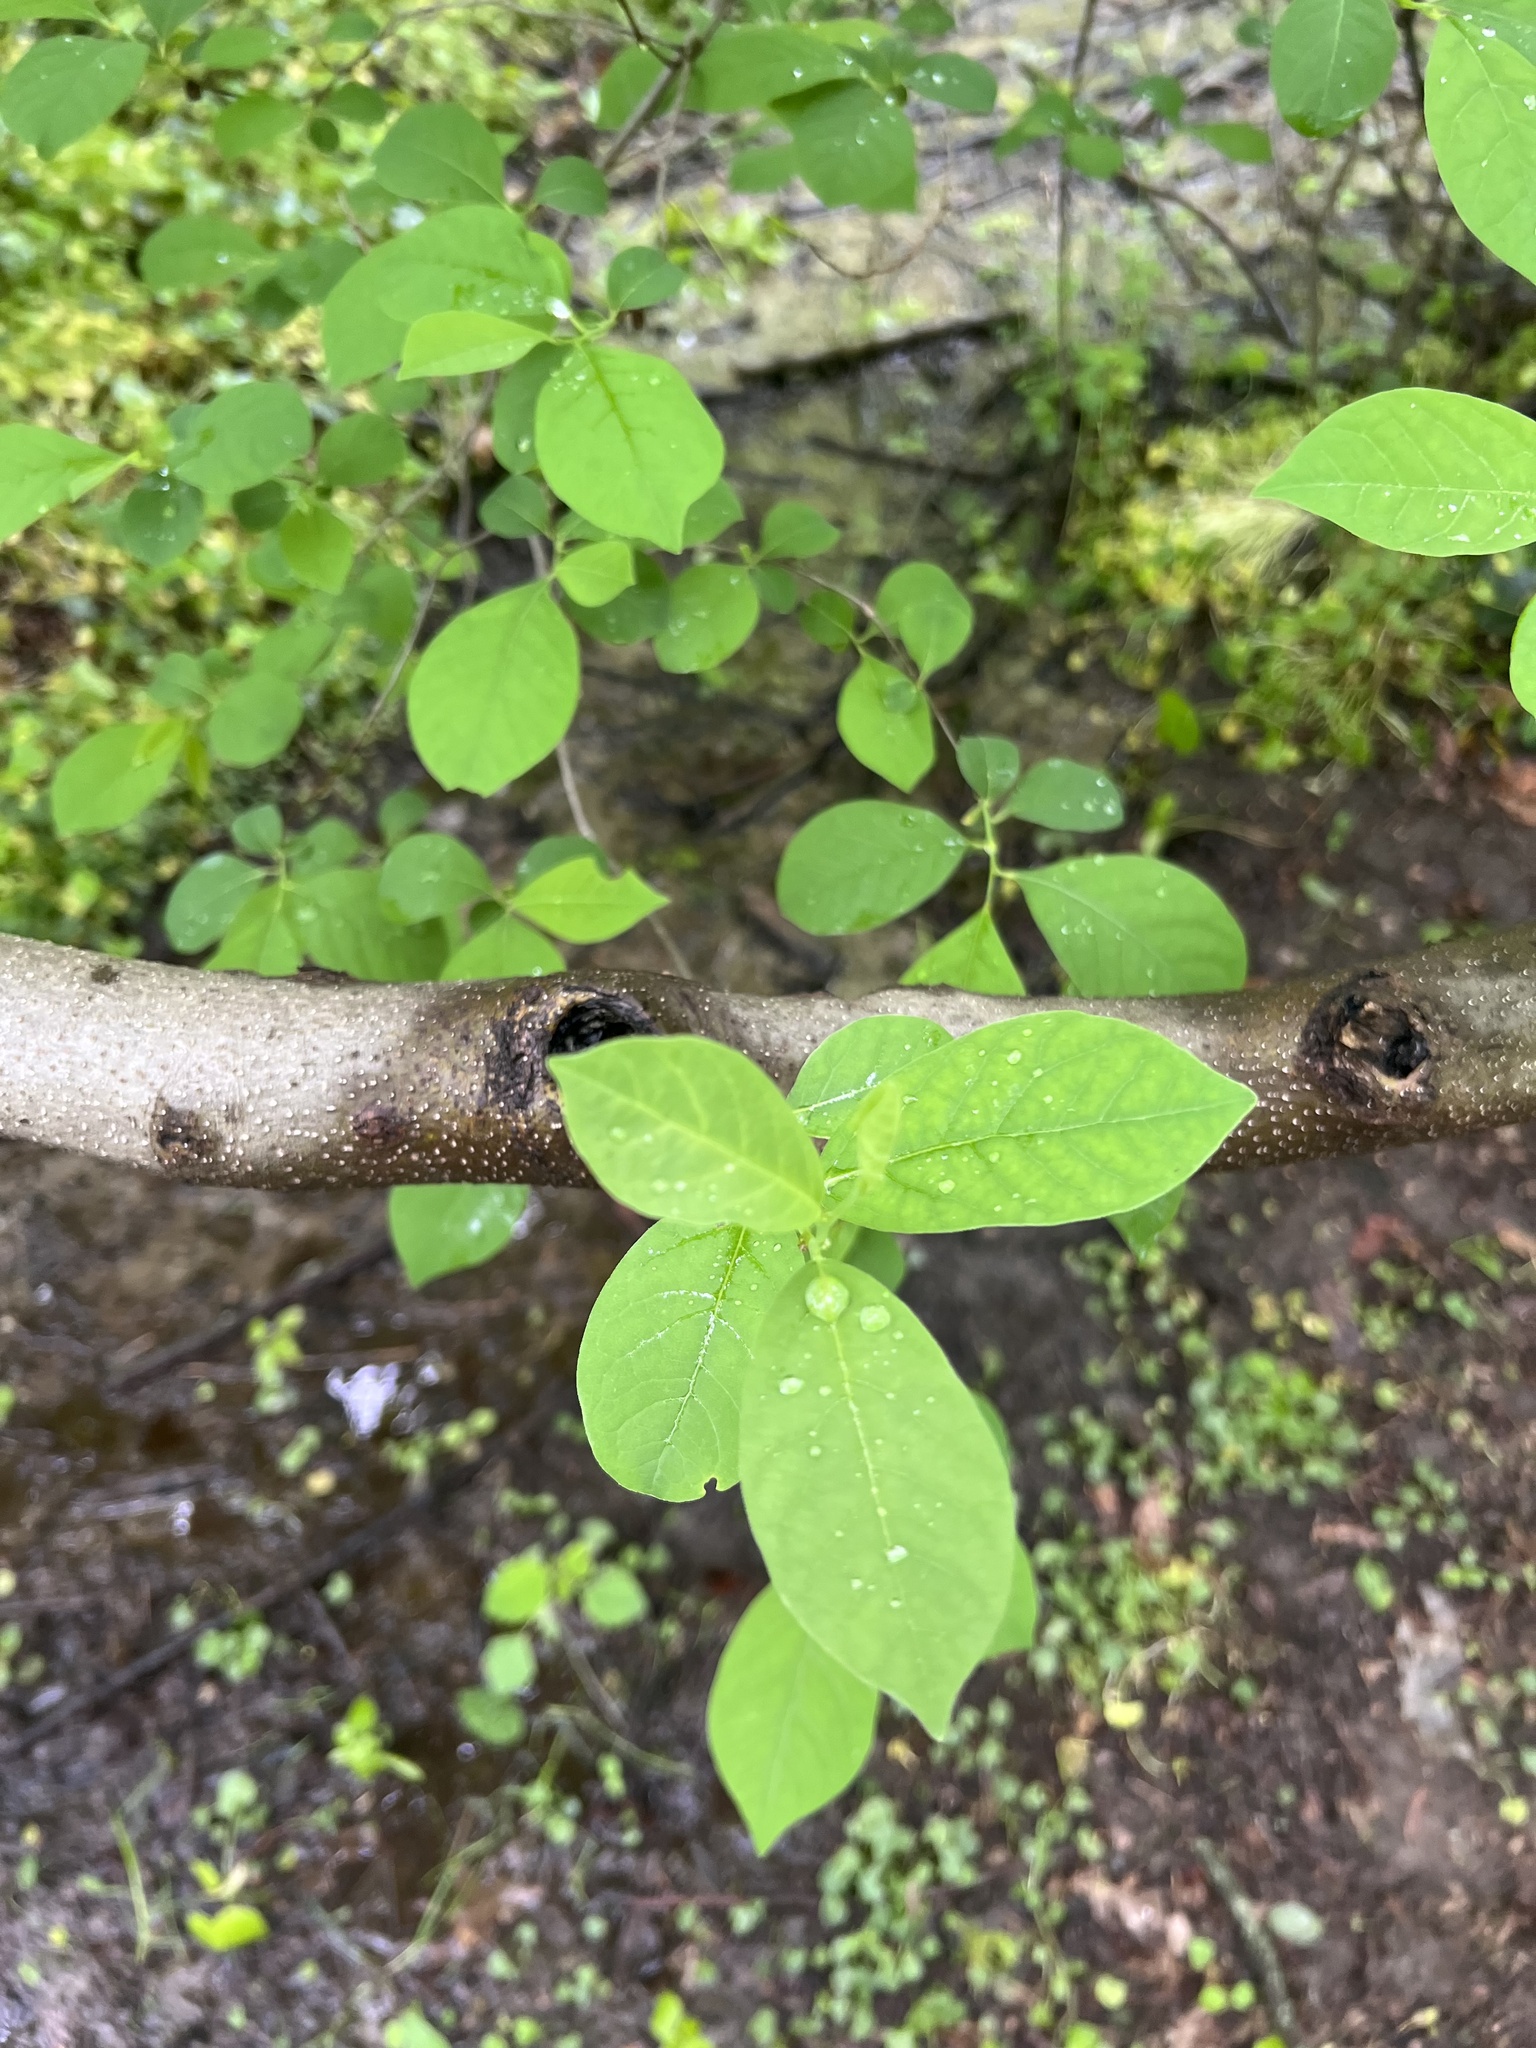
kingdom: Plantae
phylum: Tracheophyta
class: Magnoliopsida
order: Laurales
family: Lauraceae
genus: Lindera
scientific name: Lindera benzoin
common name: Spicebush
